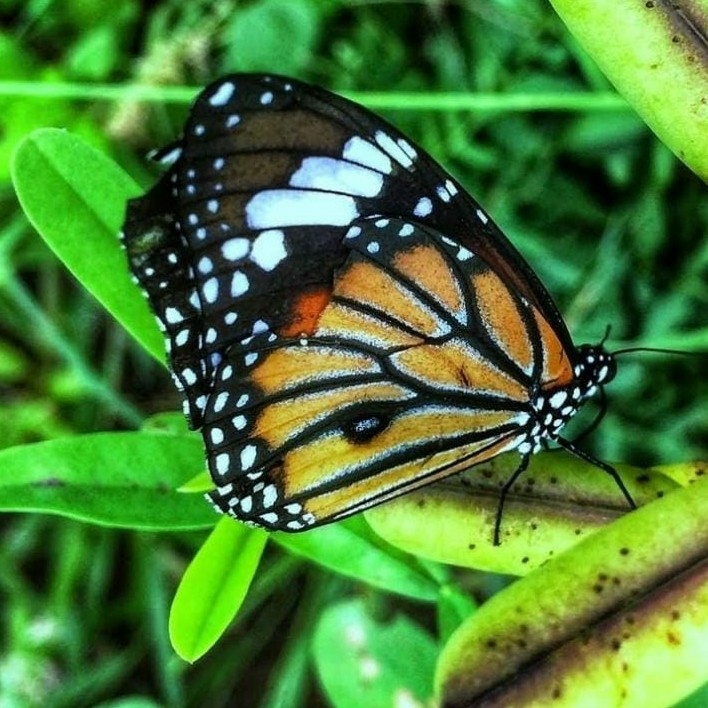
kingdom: Animalia
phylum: Arthropoda
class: Insecta
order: Lepidoptera
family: Nymphalidae
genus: Danaus
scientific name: Danaus genutia
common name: Common tiger butterfly
